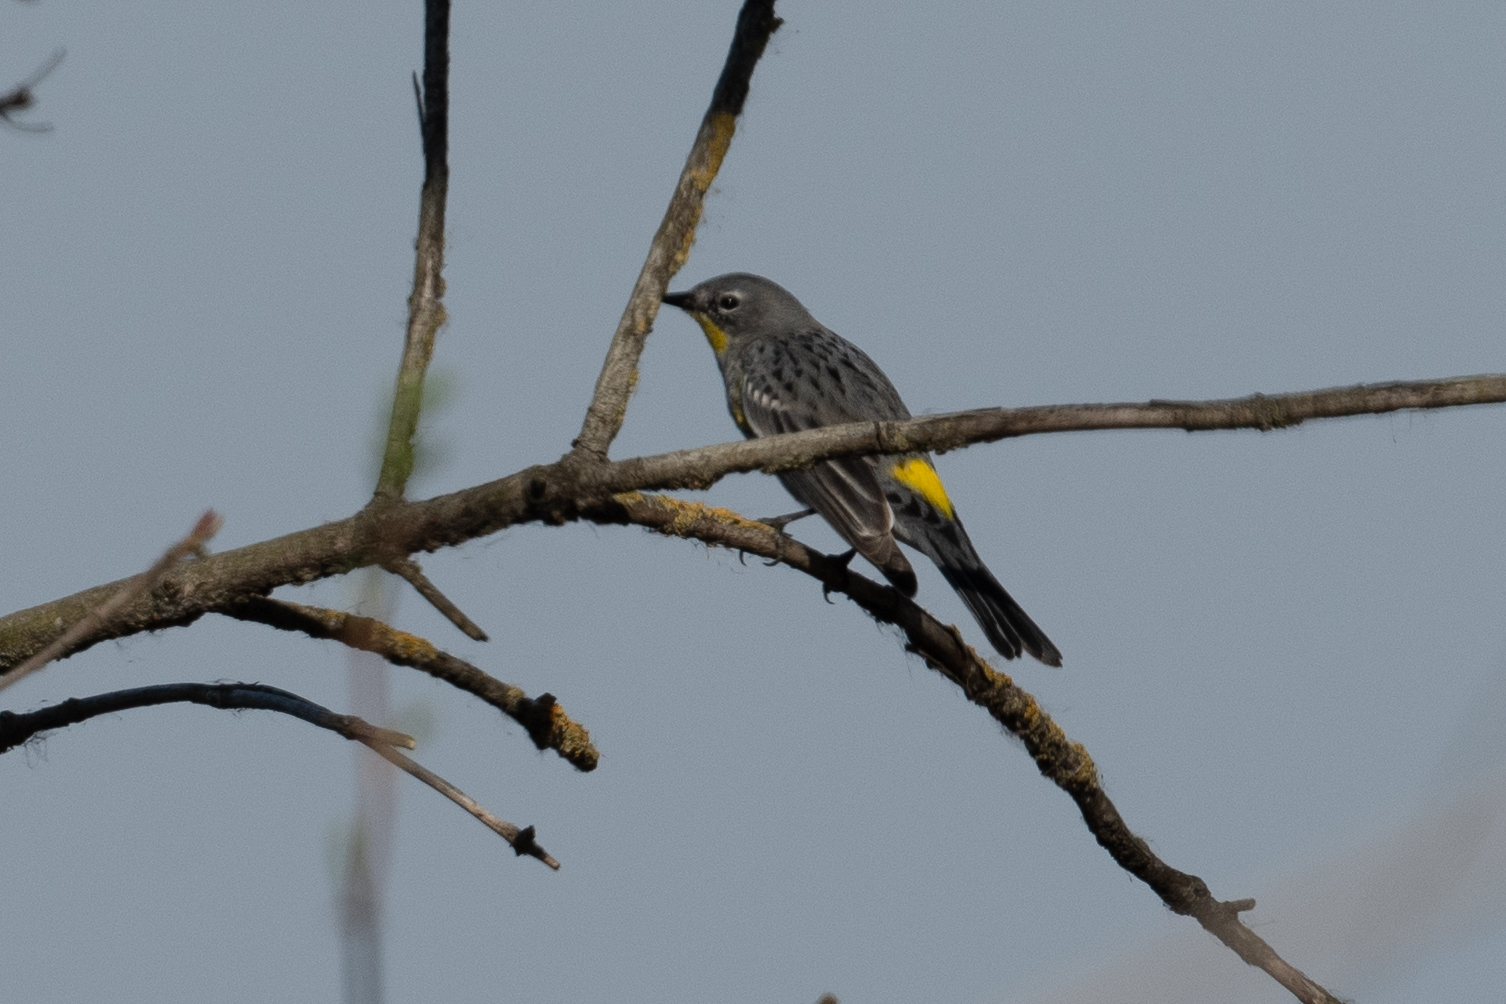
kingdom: Animalia
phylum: Chordata
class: Aves
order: Passeriformes
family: Parulidae
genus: Setophaga
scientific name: Setophaga coronata
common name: Myrtle warbler
